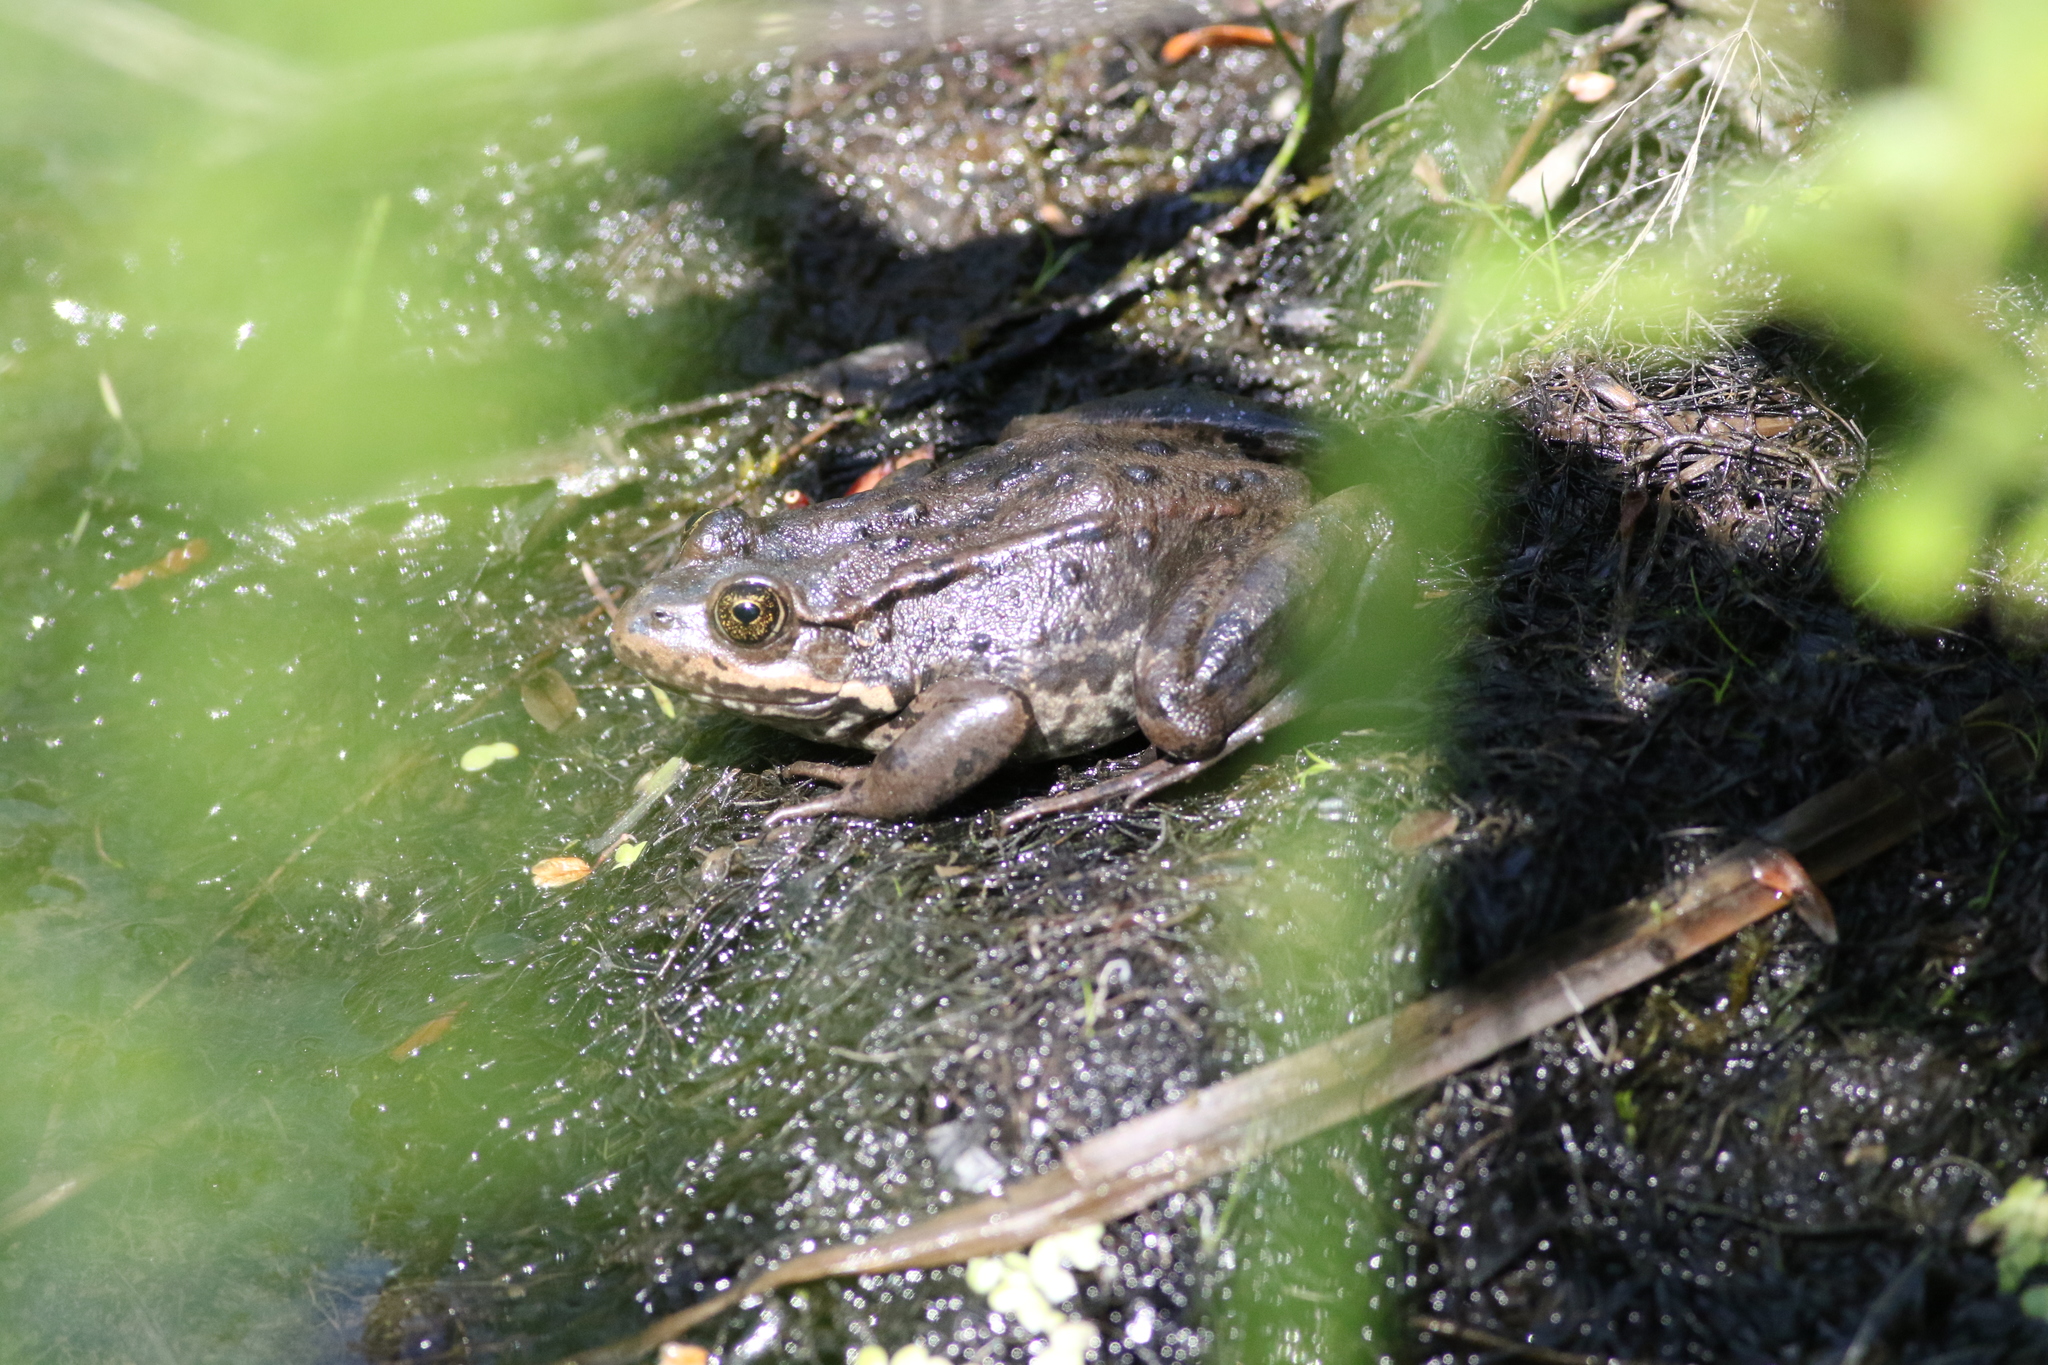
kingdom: Animalia
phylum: Chordata
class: Amphibia
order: Anura
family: Ranidae
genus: Rana
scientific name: Rana luteiventris
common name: Columbia spotted frog
